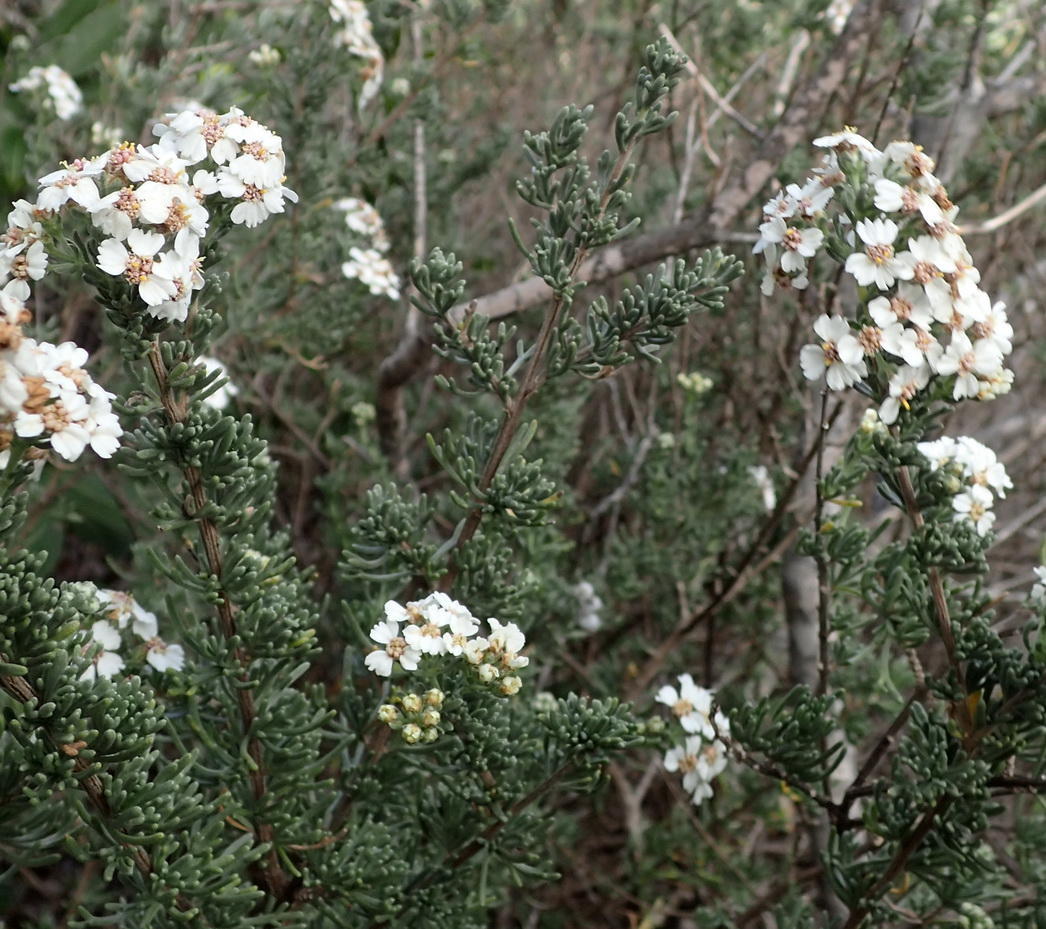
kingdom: Plantae
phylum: Tracheophyta
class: Magnoliopsida
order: Asterales
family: Asteraceae
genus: Eriocephalus
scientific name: Eriocephalus africanus
